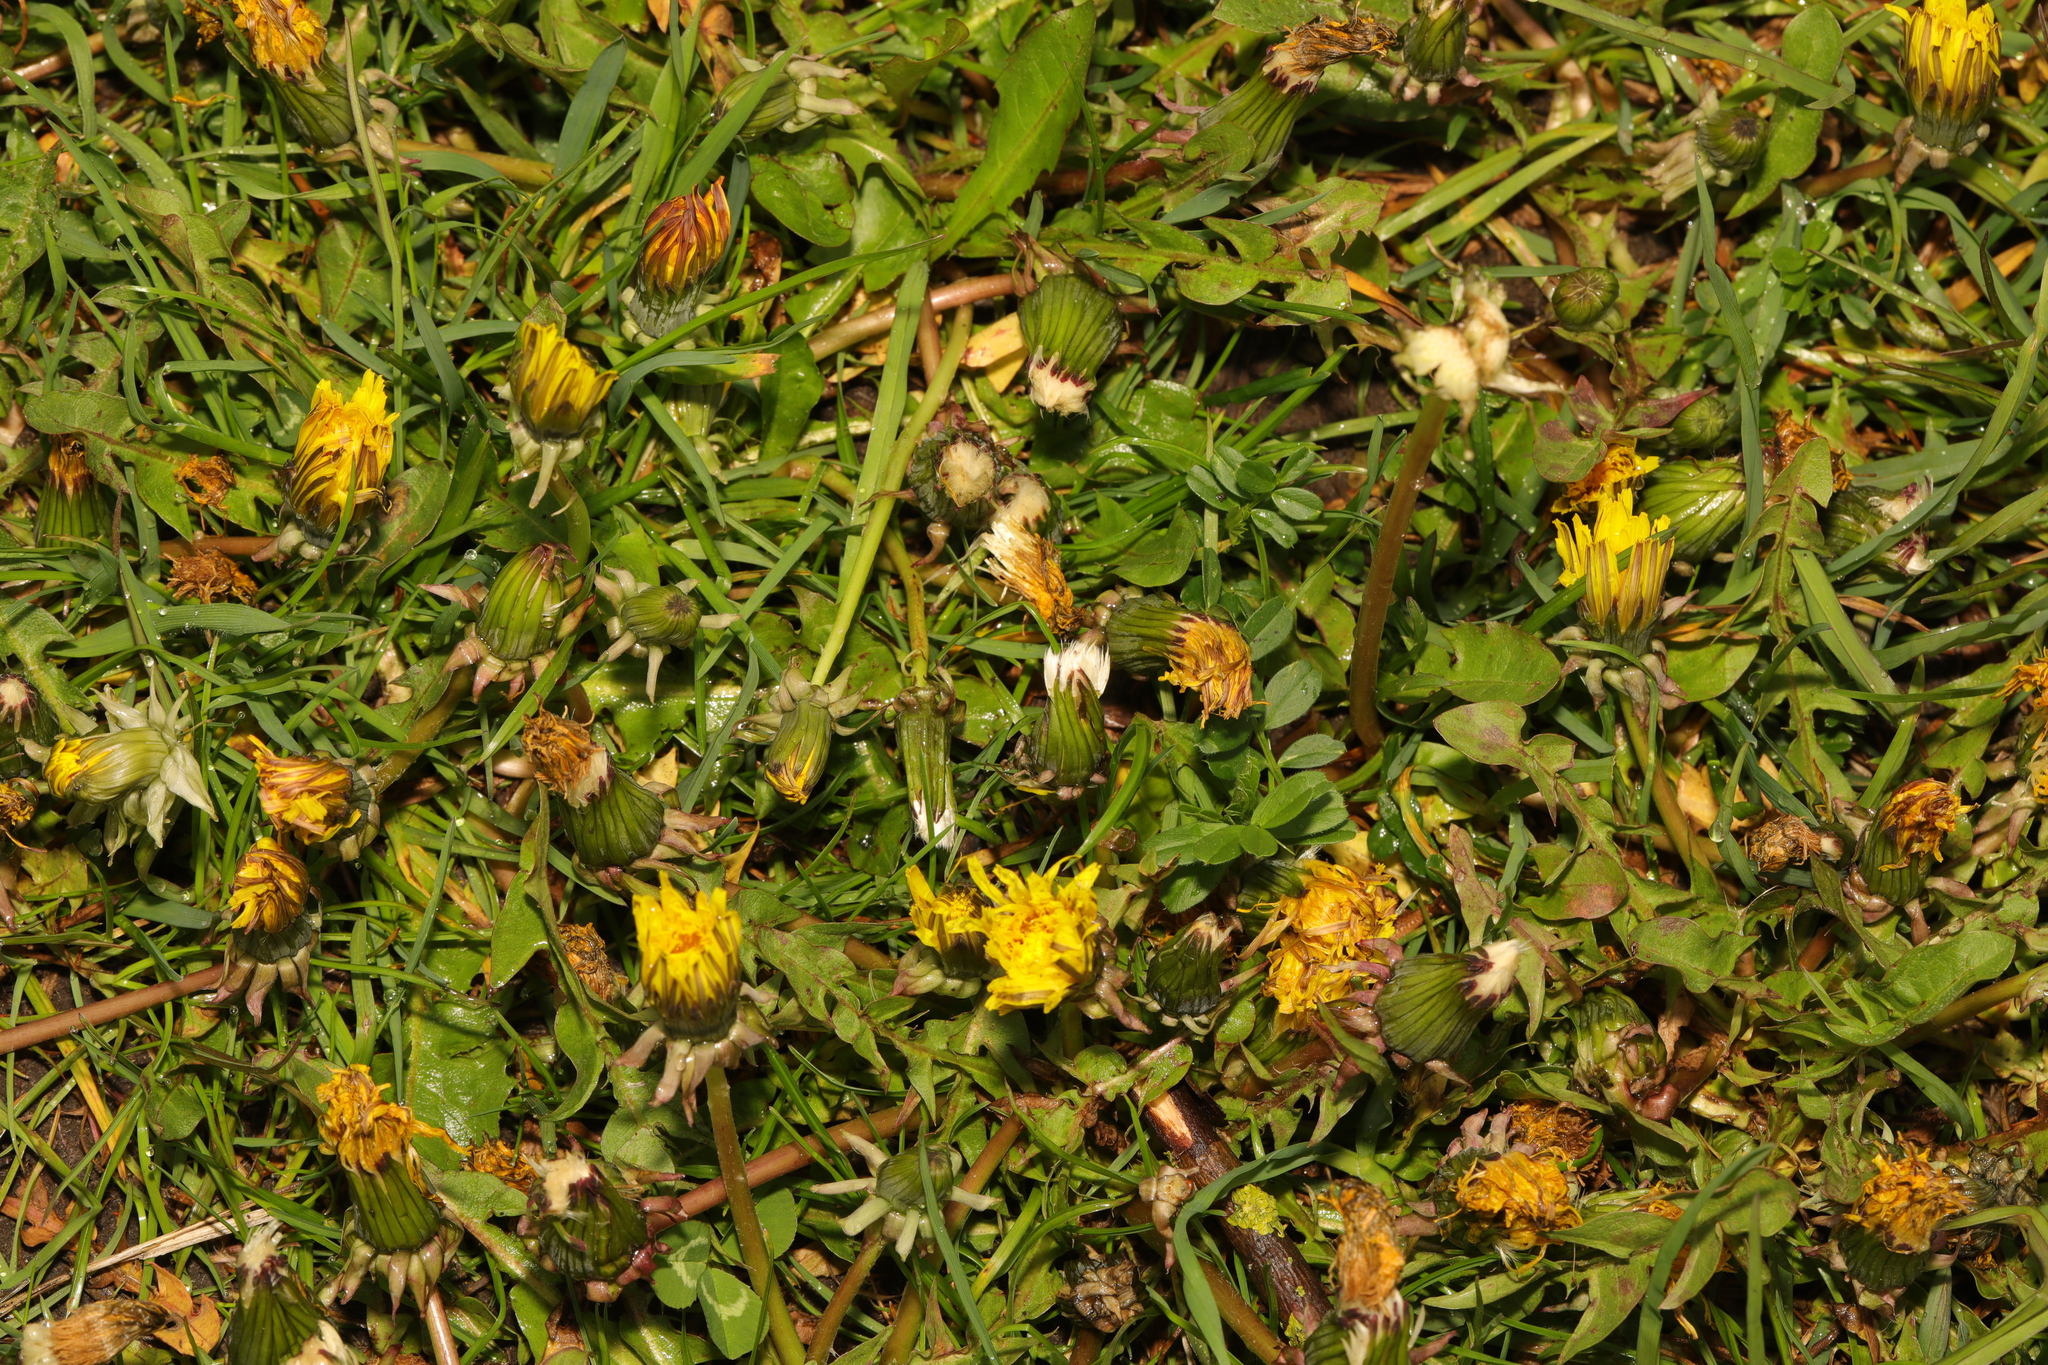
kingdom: Plantae
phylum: Tracheophyta
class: Magnoliopsida
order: Asterales
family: Asteraceae
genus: Taraxacum
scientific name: Taraxacum officinale
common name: Common dandelion
